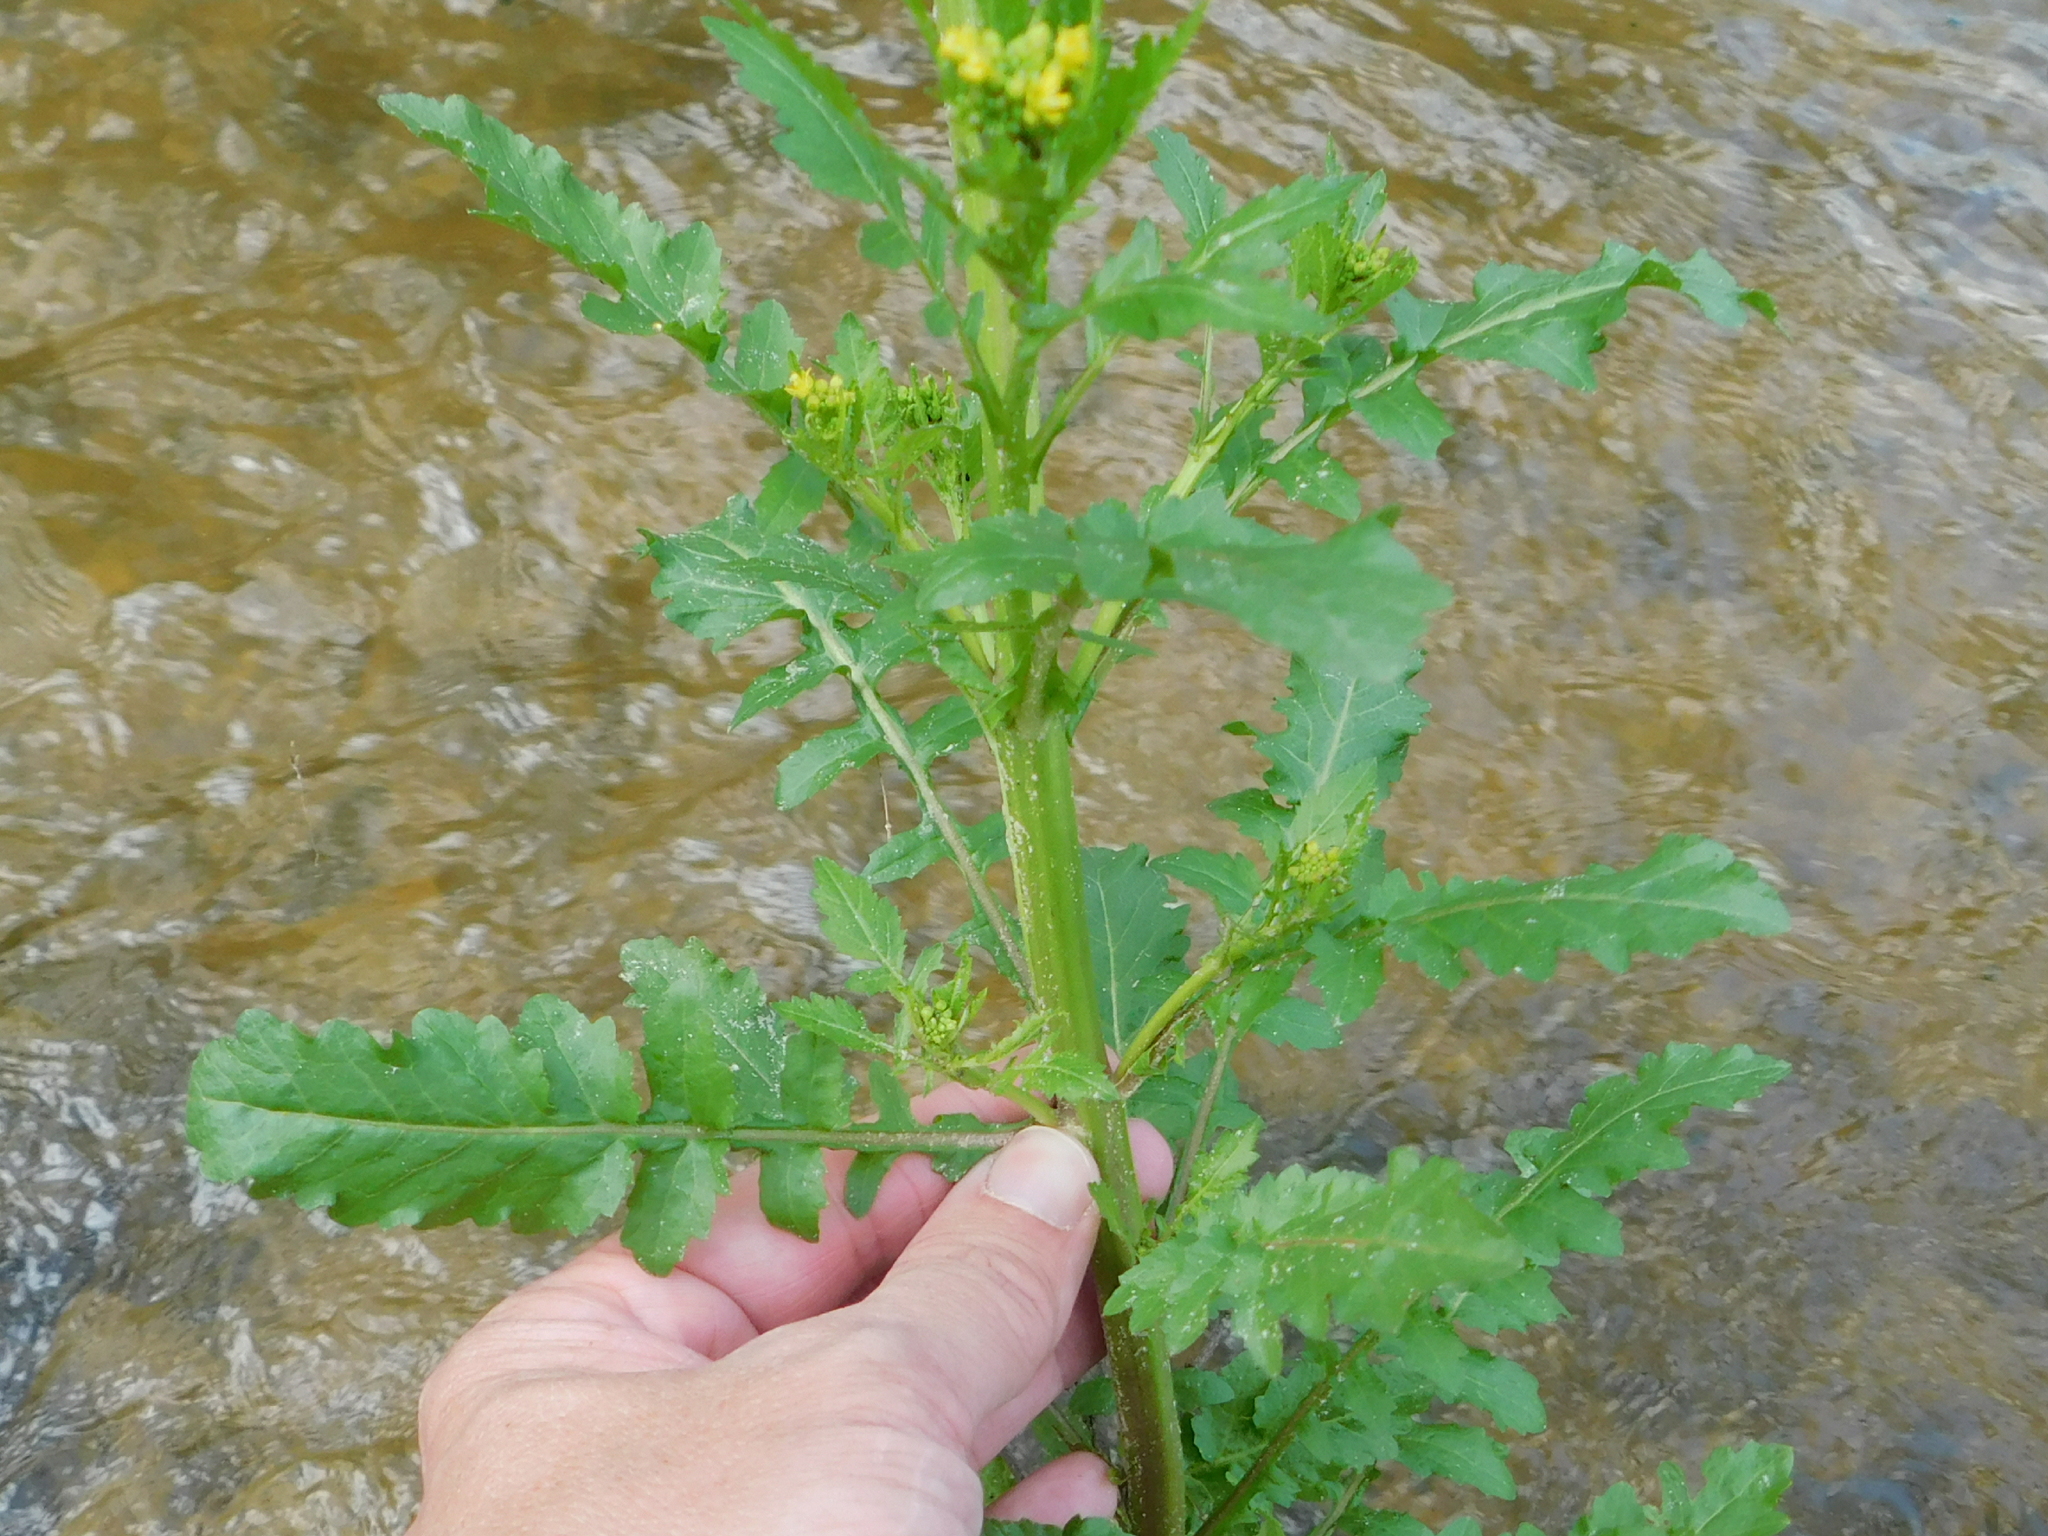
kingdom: Plantae
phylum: Tracheophyta
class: Magnoliopsida
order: Brassicales
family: Brassicaceae
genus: Rorippa
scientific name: Rorippa palustris
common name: Marsh yellow-cress
